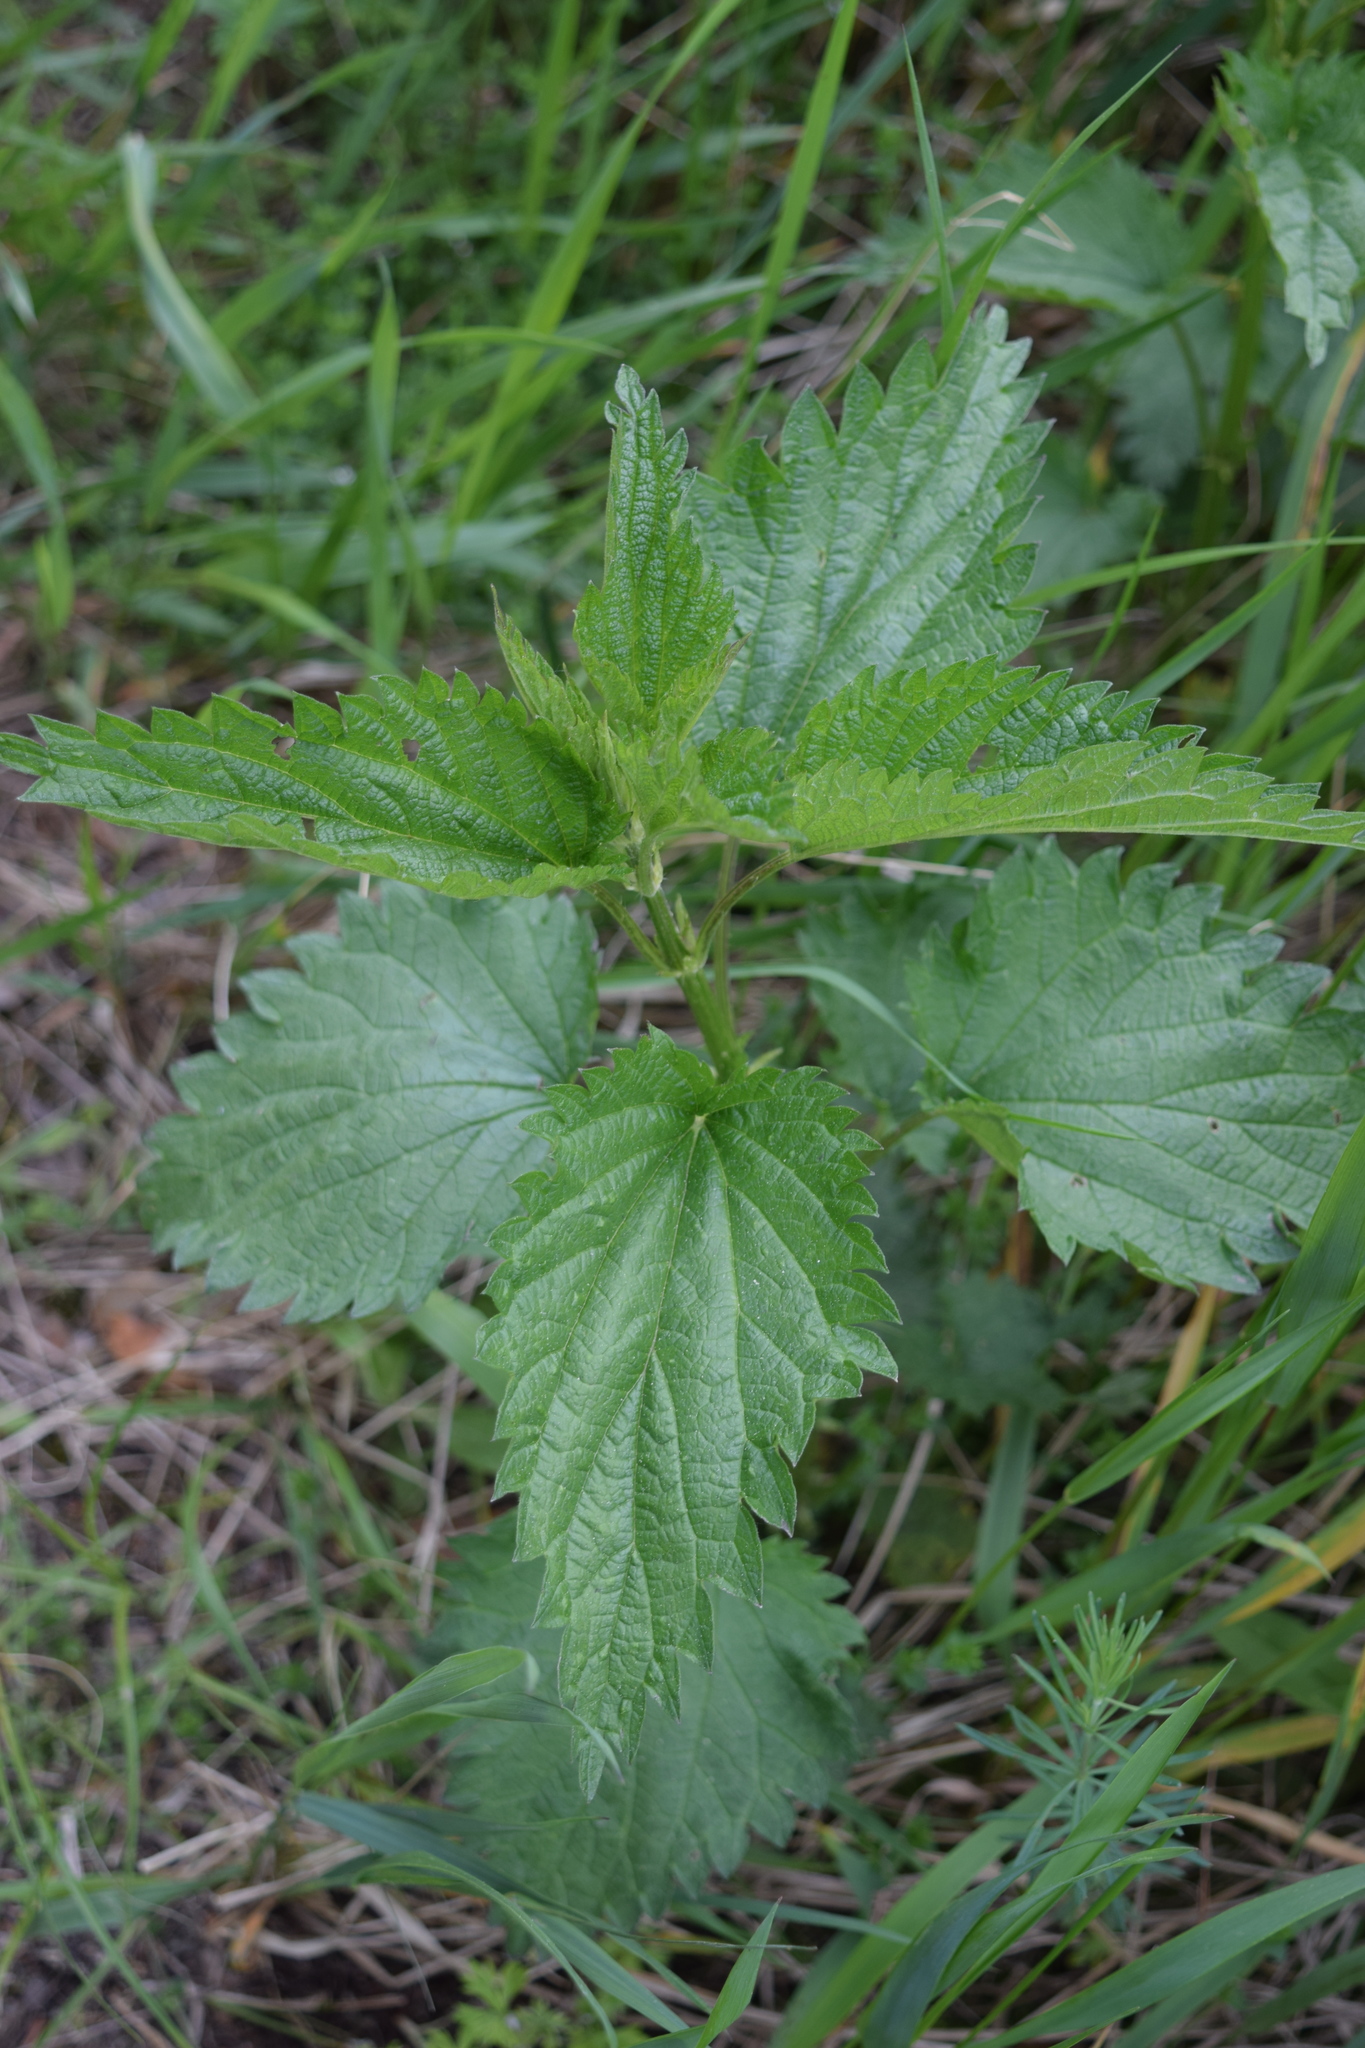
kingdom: Plantae
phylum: Tracheophyta
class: Magnoliopsida
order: Rosales
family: Urticaceae
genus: Urtica
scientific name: Urtica dioica
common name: Common nettle
